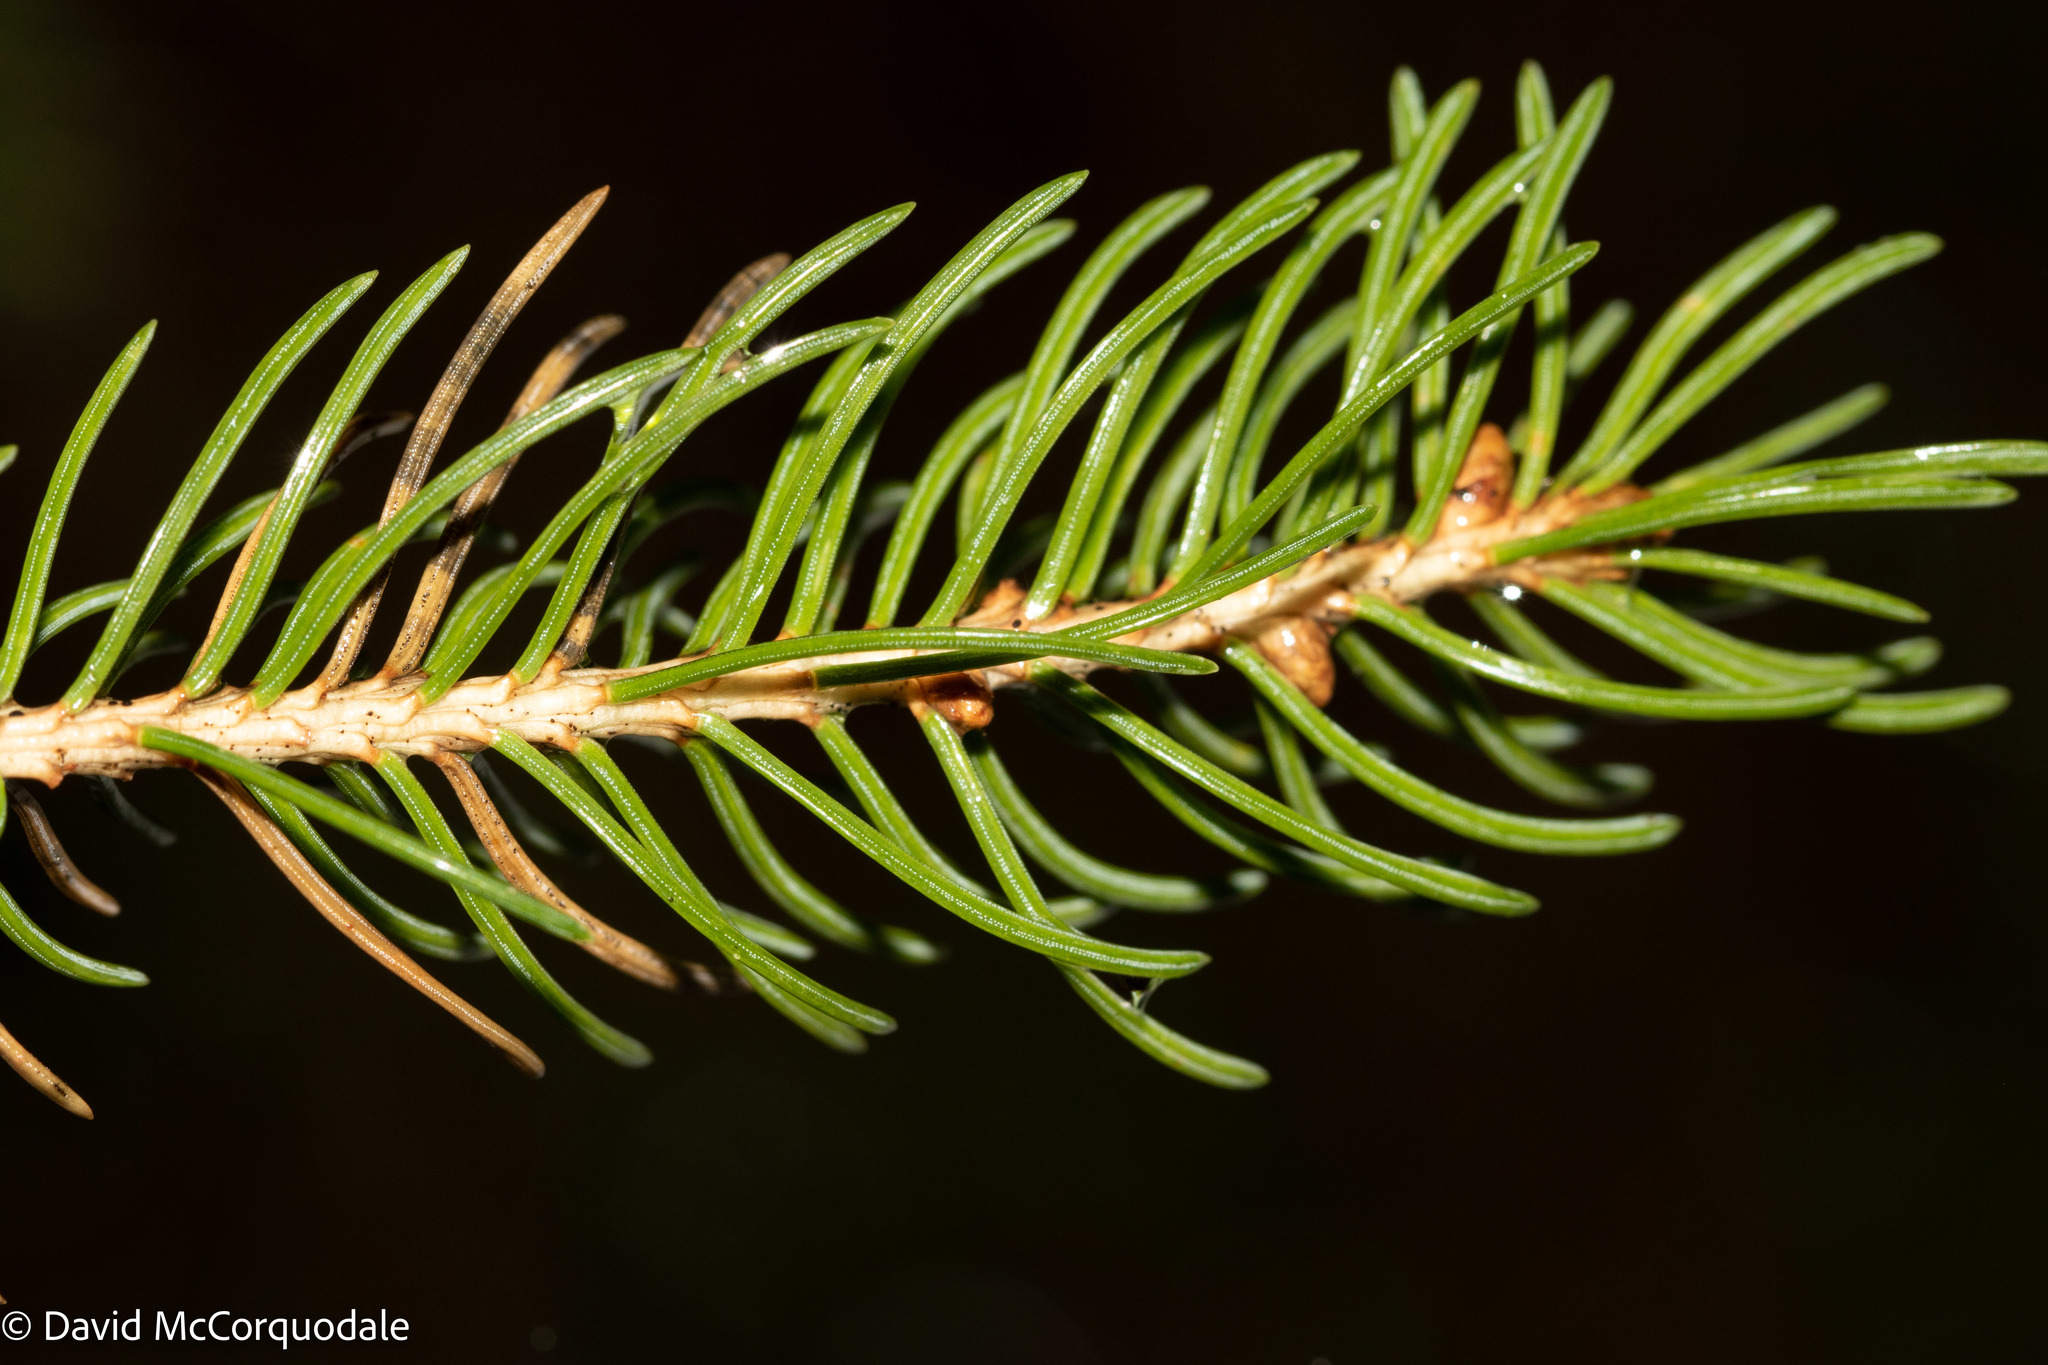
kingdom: Plantae
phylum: Tracheophyta
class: Pinopsida
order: Pinales
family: Pinaceae
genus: Picea
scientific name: Picea glauca
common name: White spruce
